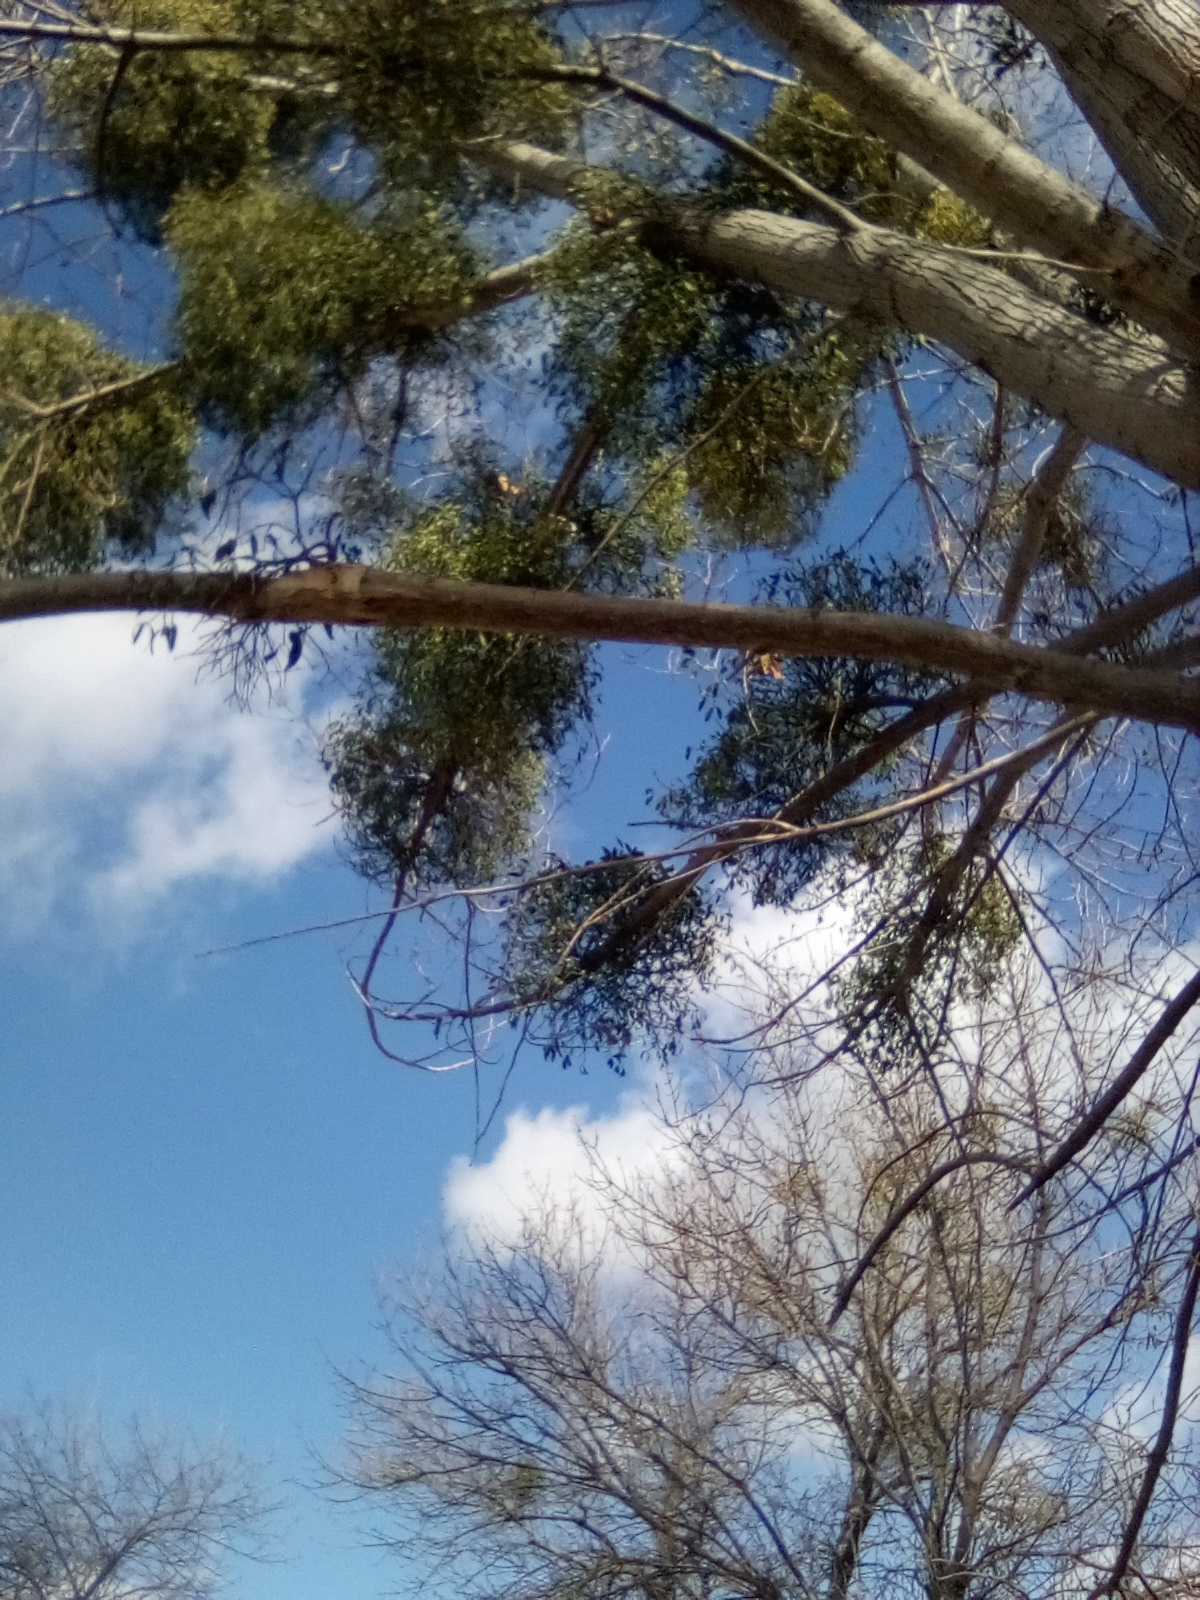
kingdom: Plantae
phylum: Tracheophyta
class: Magnoliopsida
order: Santalales
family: Viscaceae
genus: Viscum
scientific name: Viscum album
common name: Mistletoe
